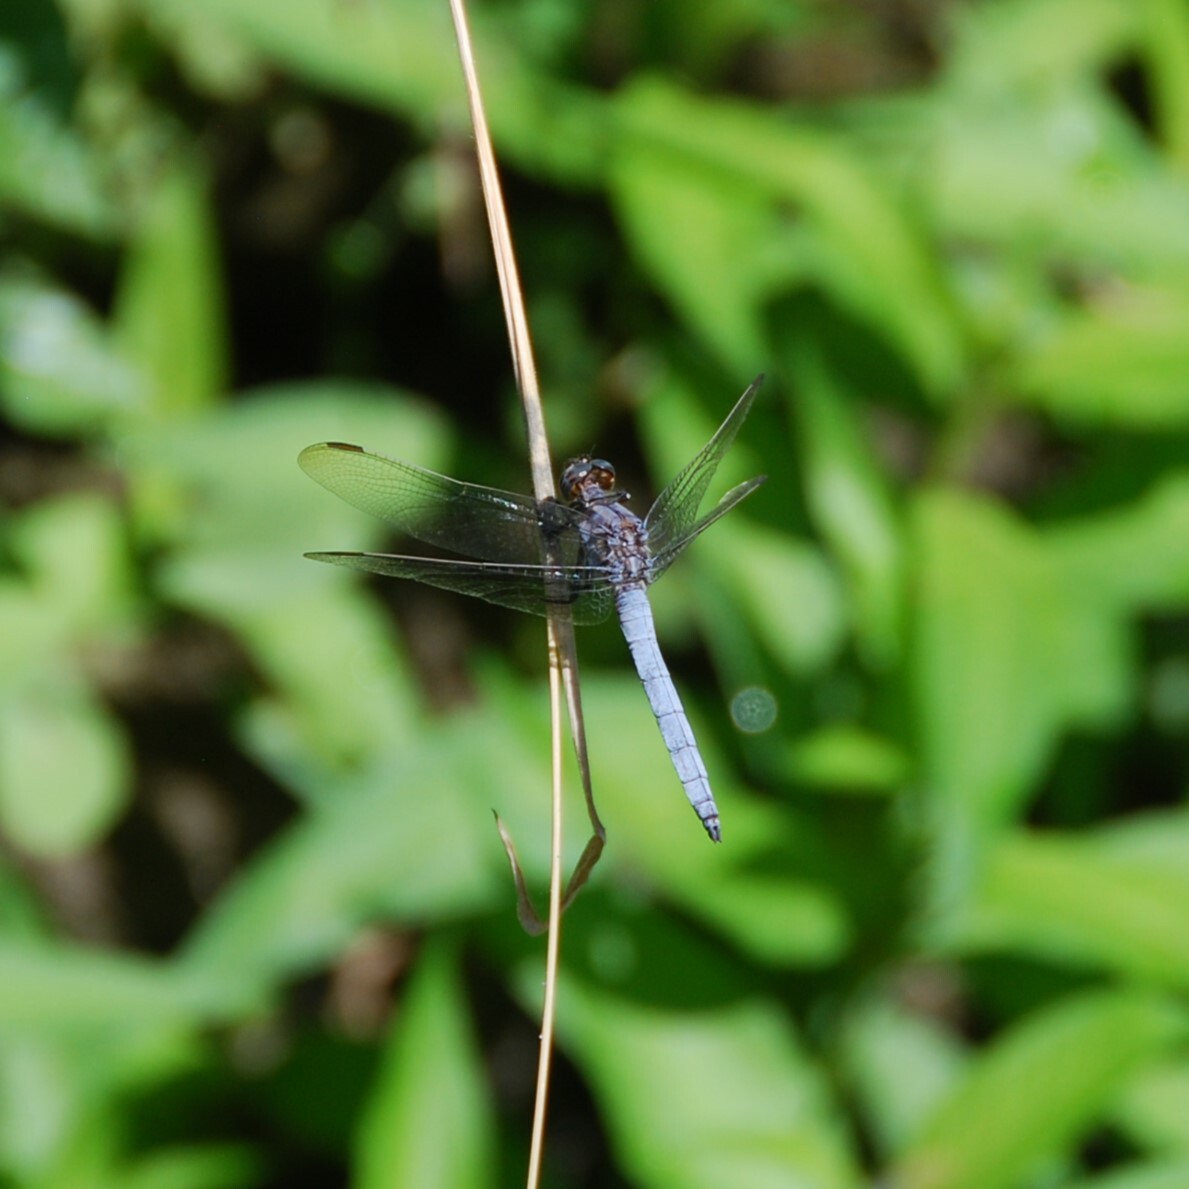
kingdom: Animalia
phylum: Arthropoda
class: Insecta
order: Odonata
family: Libellulidae
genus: Orthetrum
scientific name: Orthetrum coerulescens
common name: Keeled skimmer
